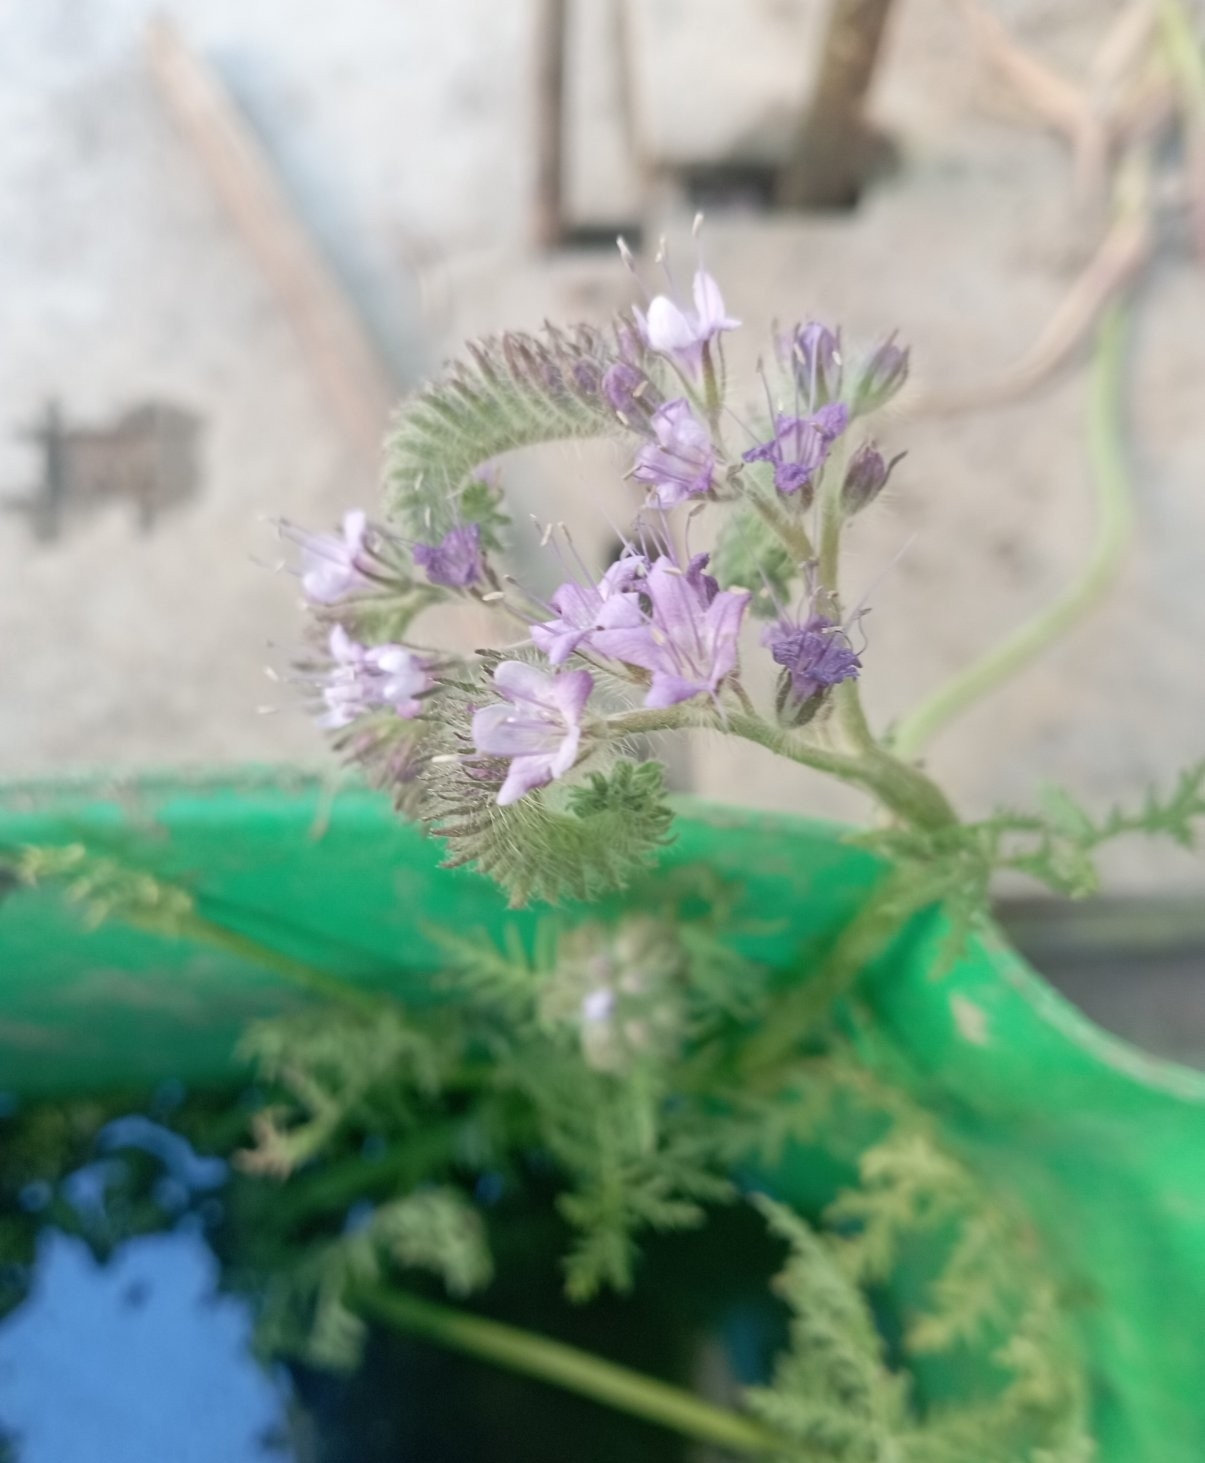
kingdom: Plantae
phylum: Tracheophyta
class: Magnoliopsida
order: Boraginales
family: Hydrophyllaceae
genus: Phacelia
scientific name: Phacelia tanacetifolia
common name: Phacelia
